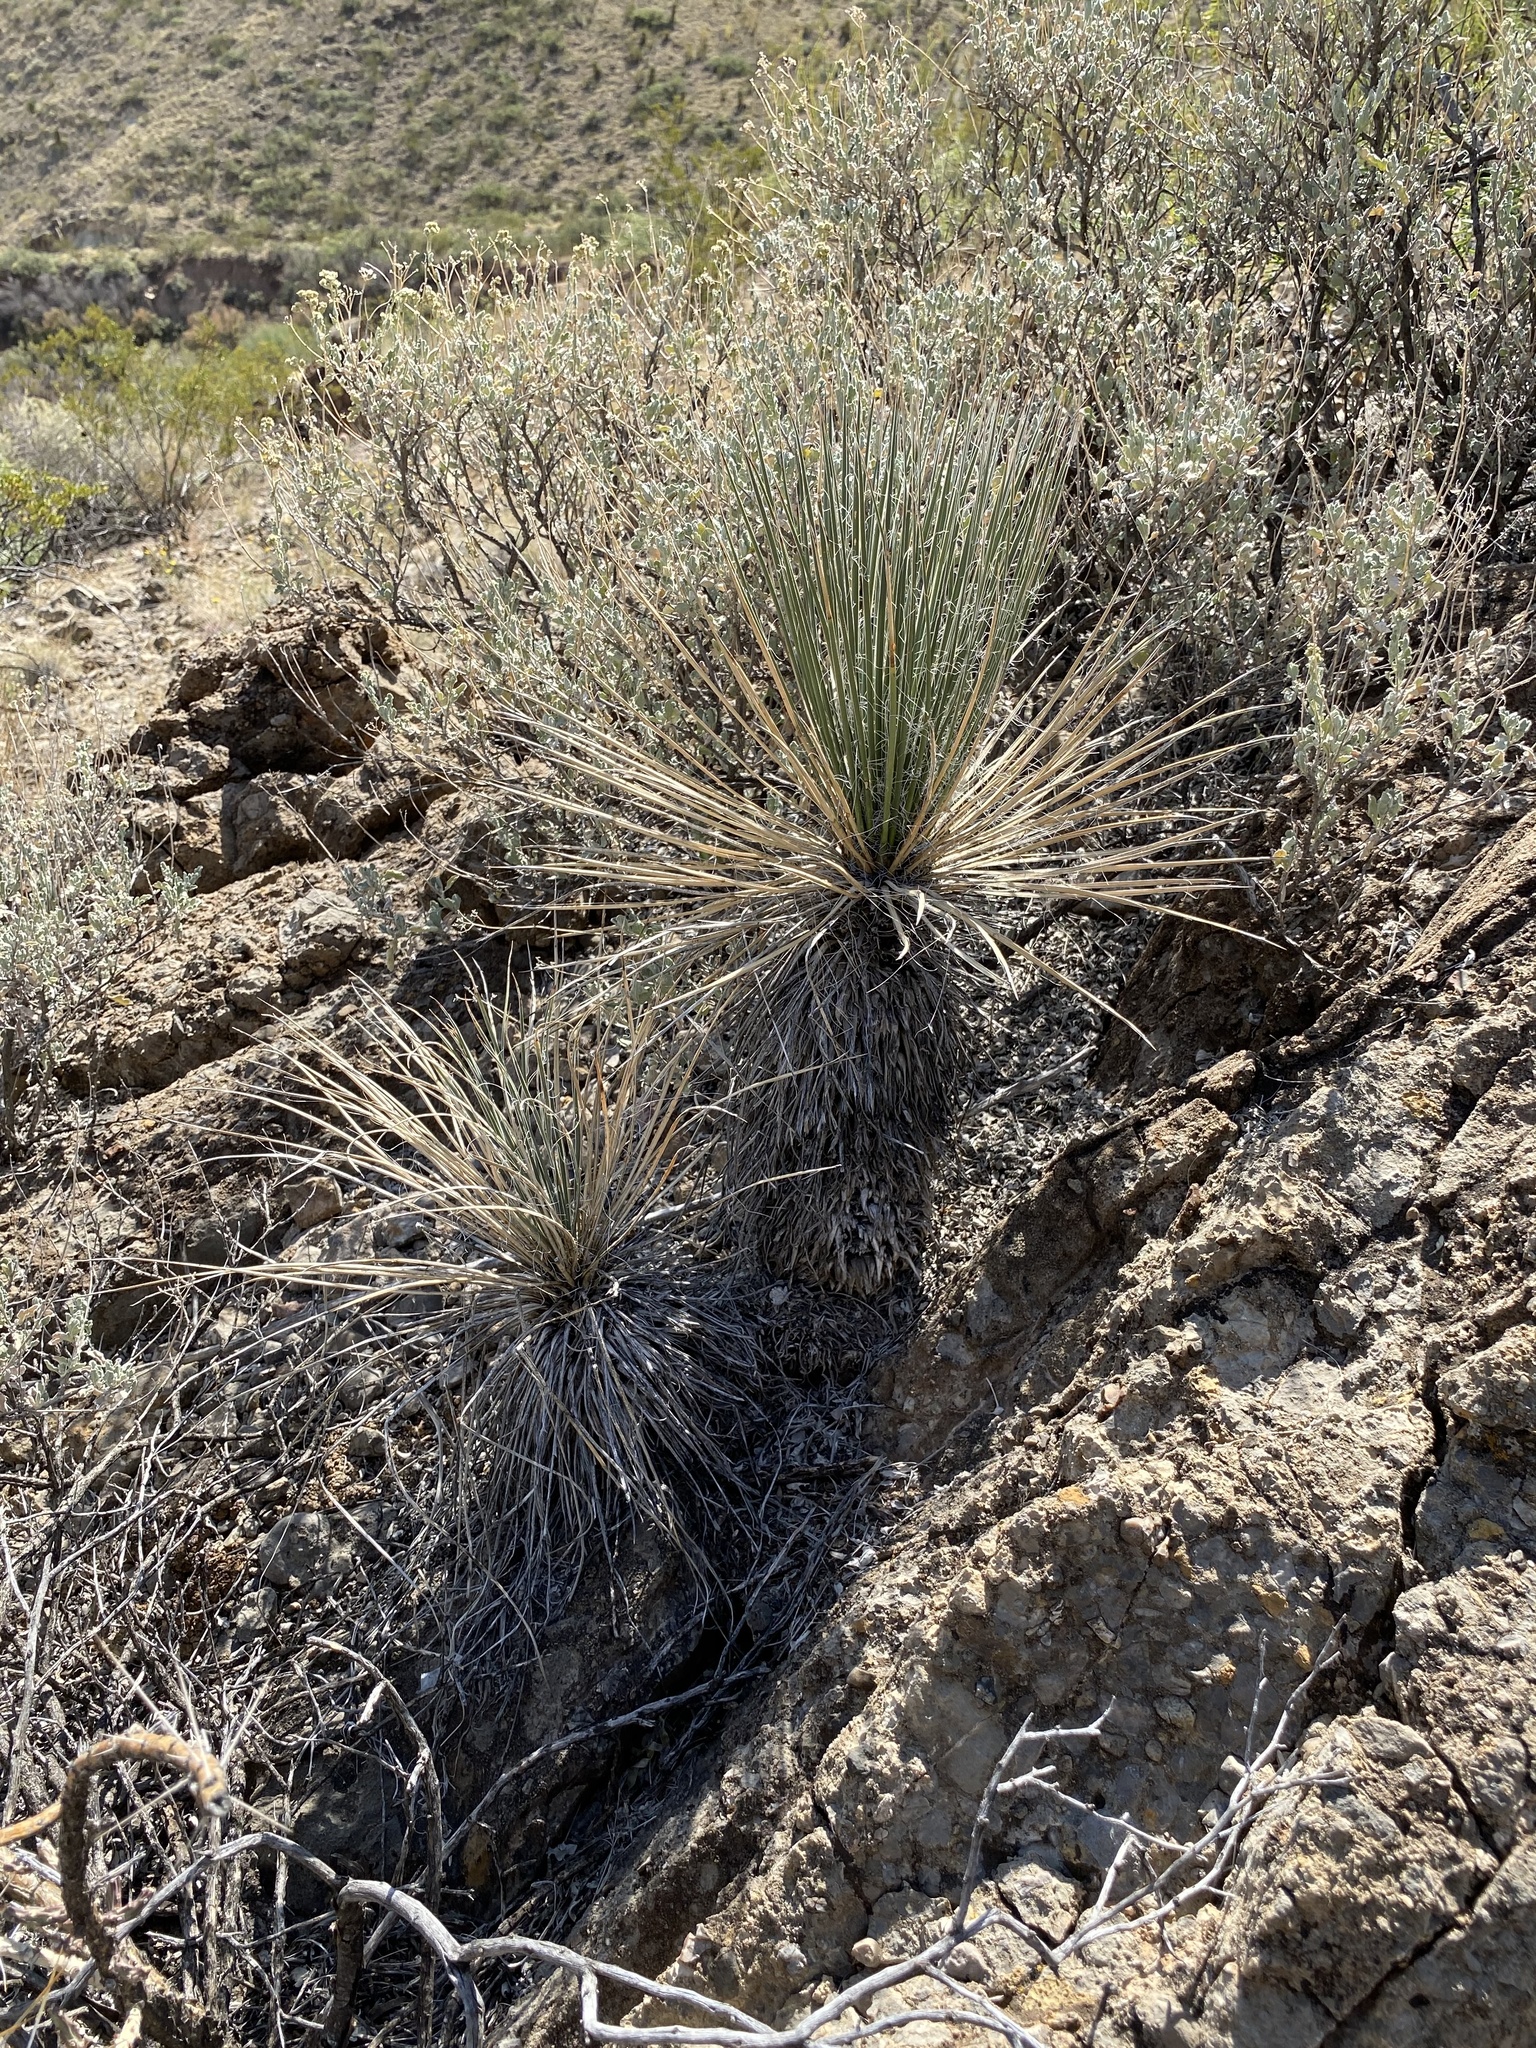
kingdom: Plantae
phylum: Tracheophyta
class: Liliopsida
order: Asparagales
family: Asparagaceae
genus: Yucca
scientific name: Yucca elata
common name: Palmella
